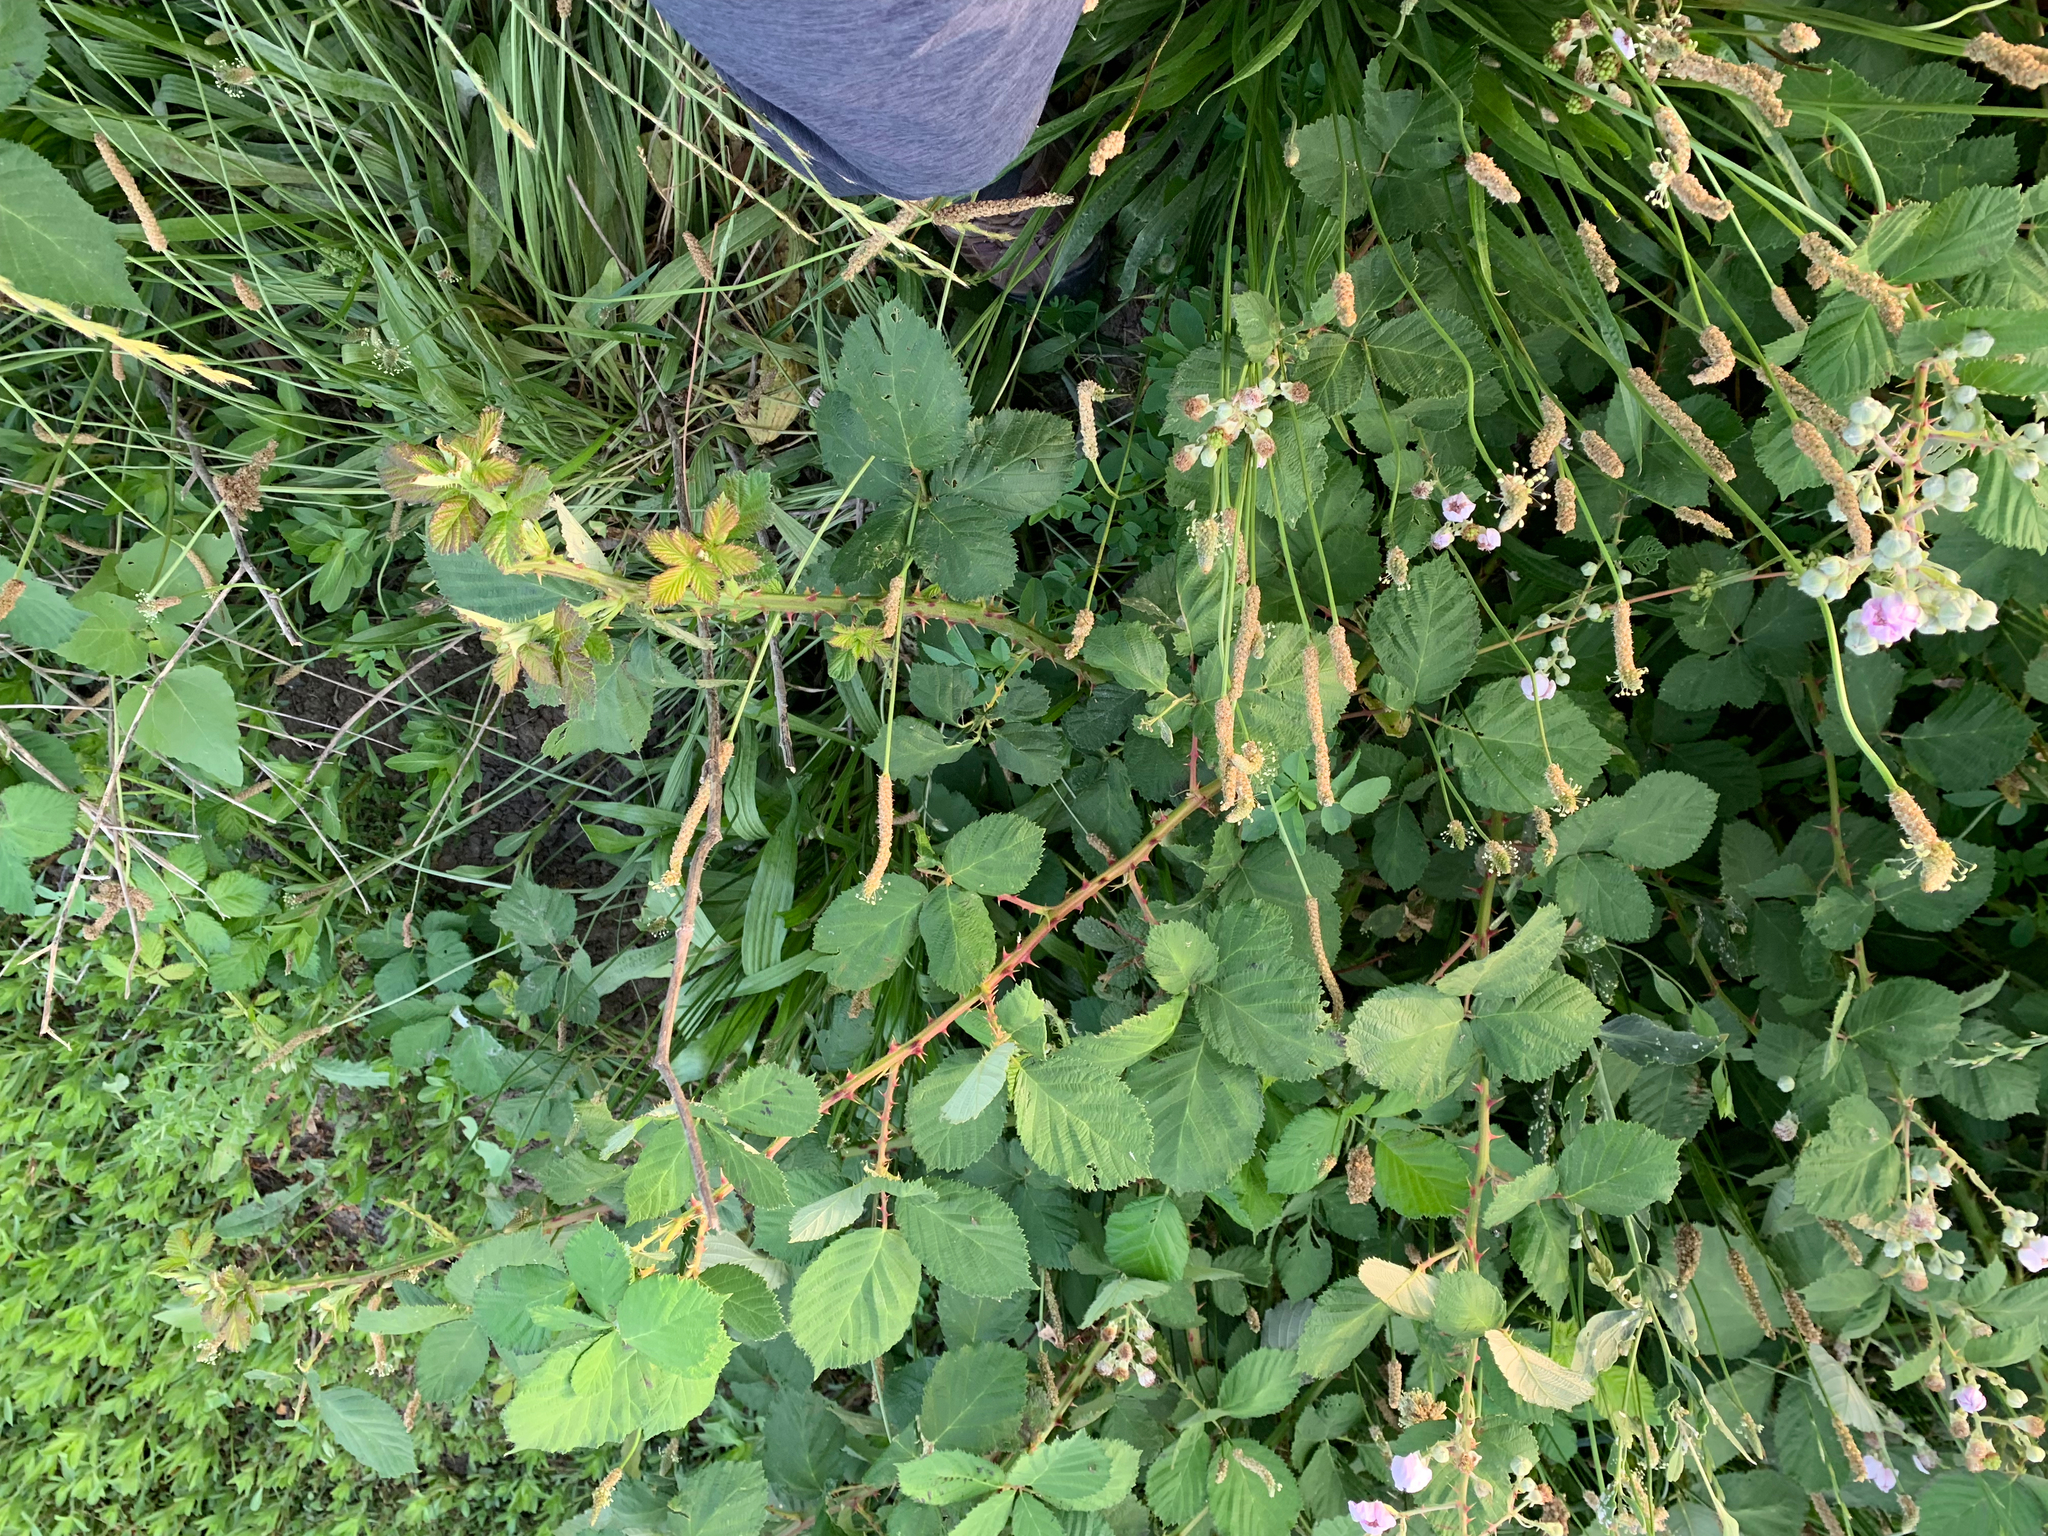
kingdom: Plantae
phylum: Tracheophyta
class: Magnoliopsida
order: Rosales
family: Rosaceae
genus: Rubus
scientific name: Rubus armeniacus
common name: Himalayan blackberry
